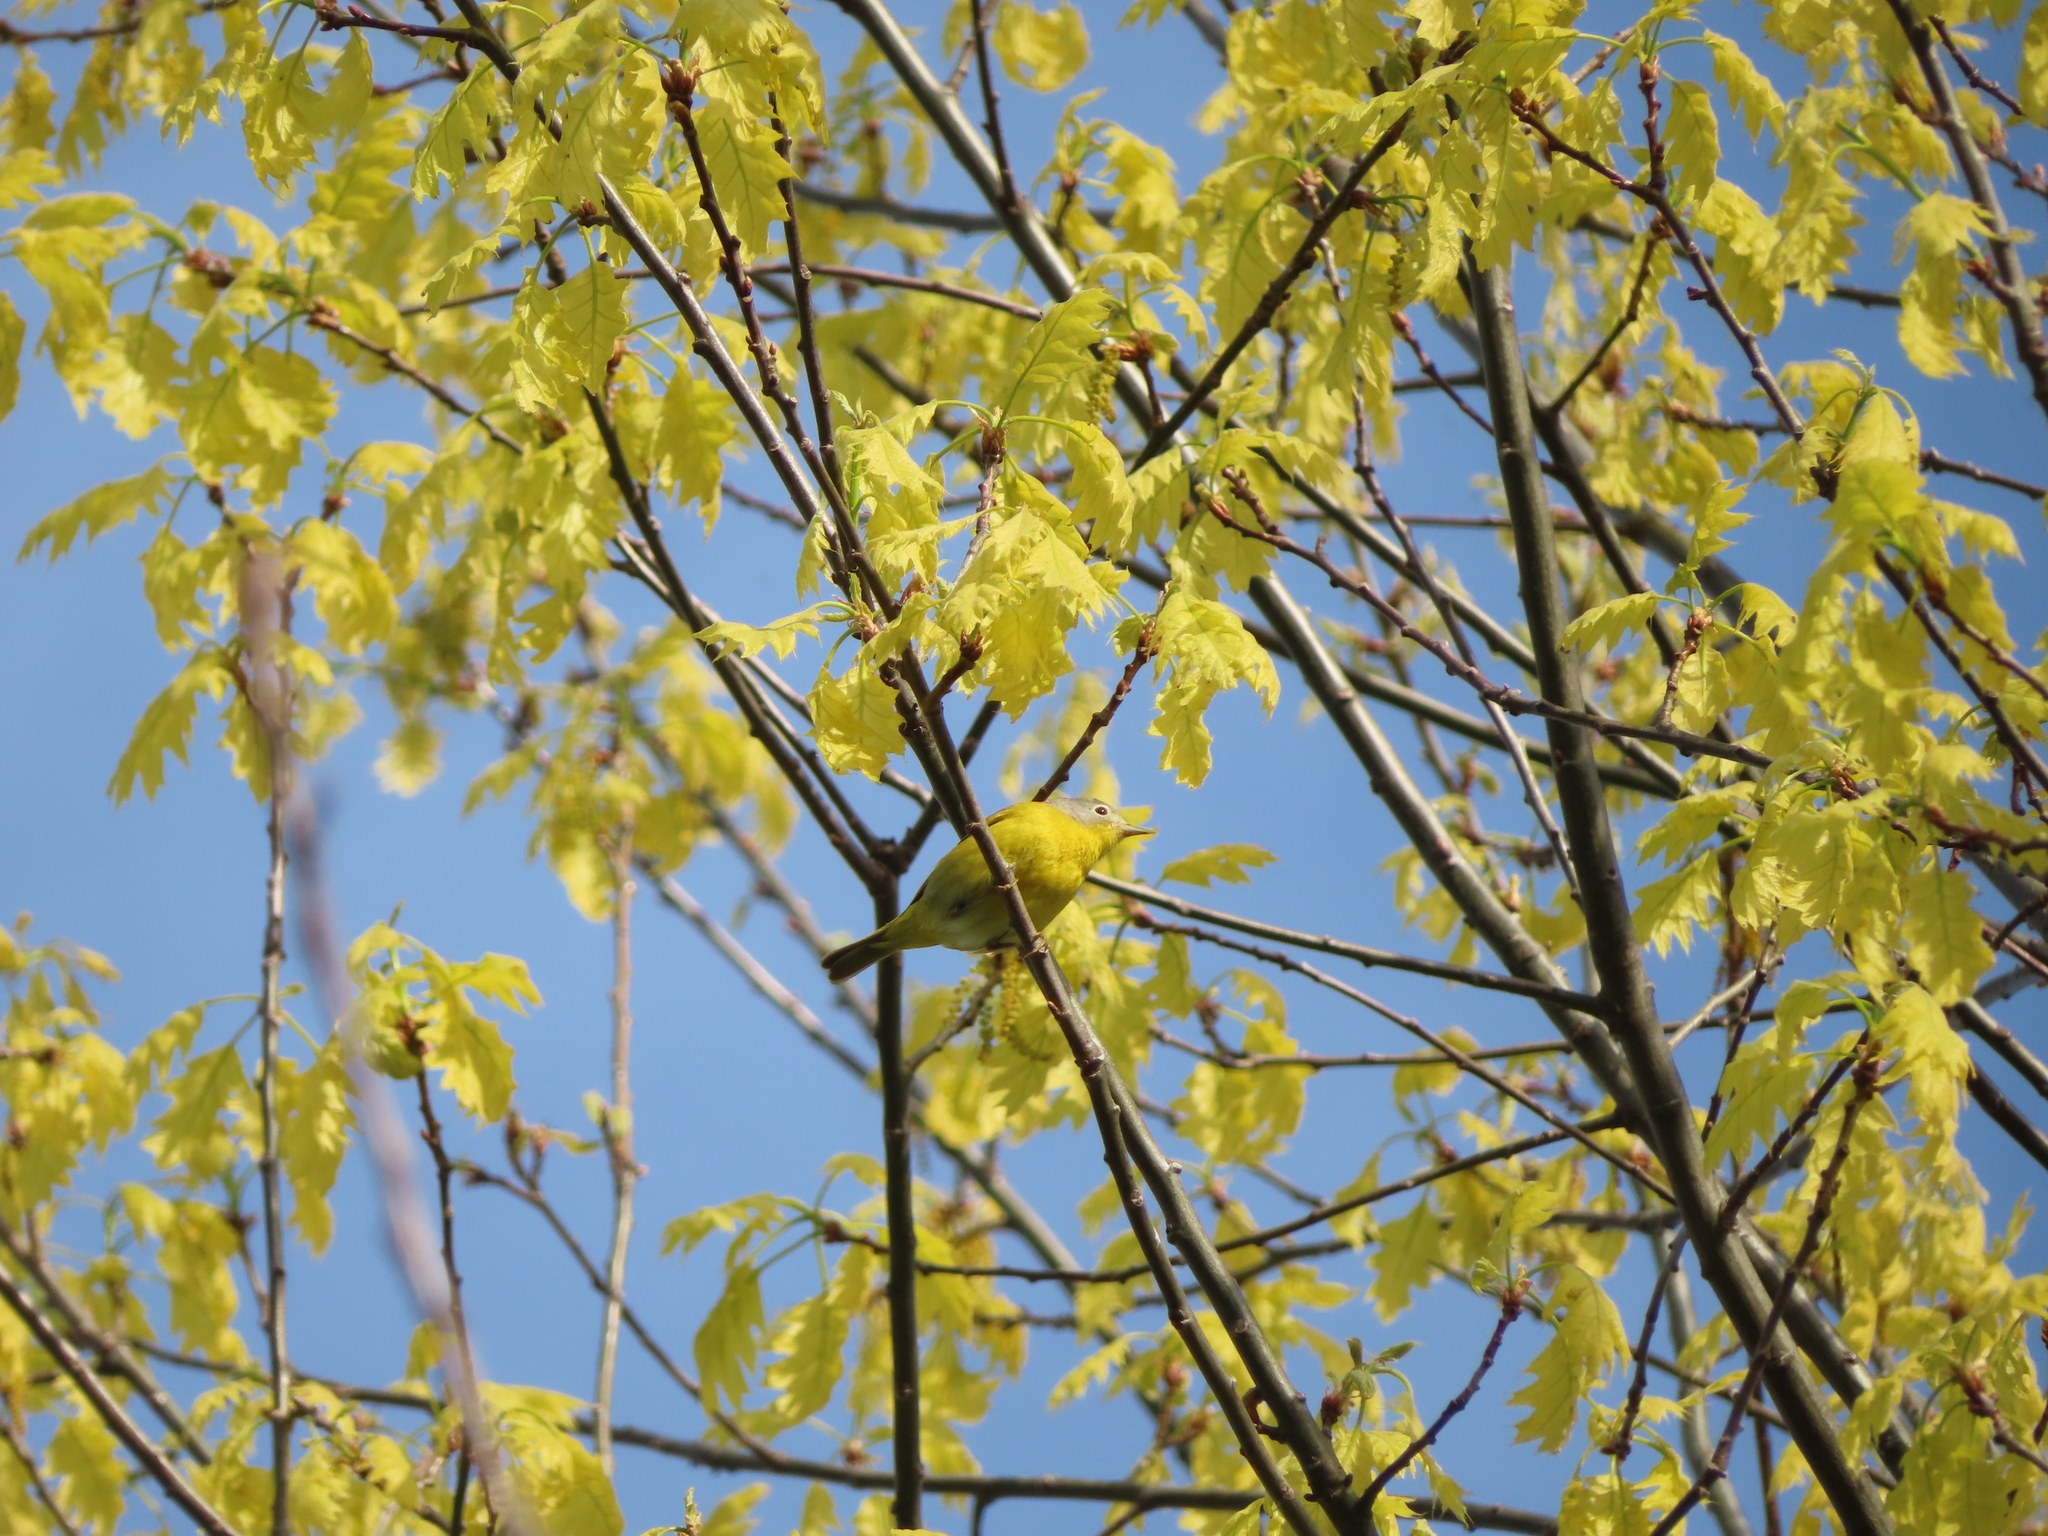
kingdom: Animalia
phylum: Chordata
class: Aves
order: Passeriformes
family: Parulidae
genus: Leiothlypis
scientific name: Leiothlypis ruficapilla
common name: Nashville warbler
